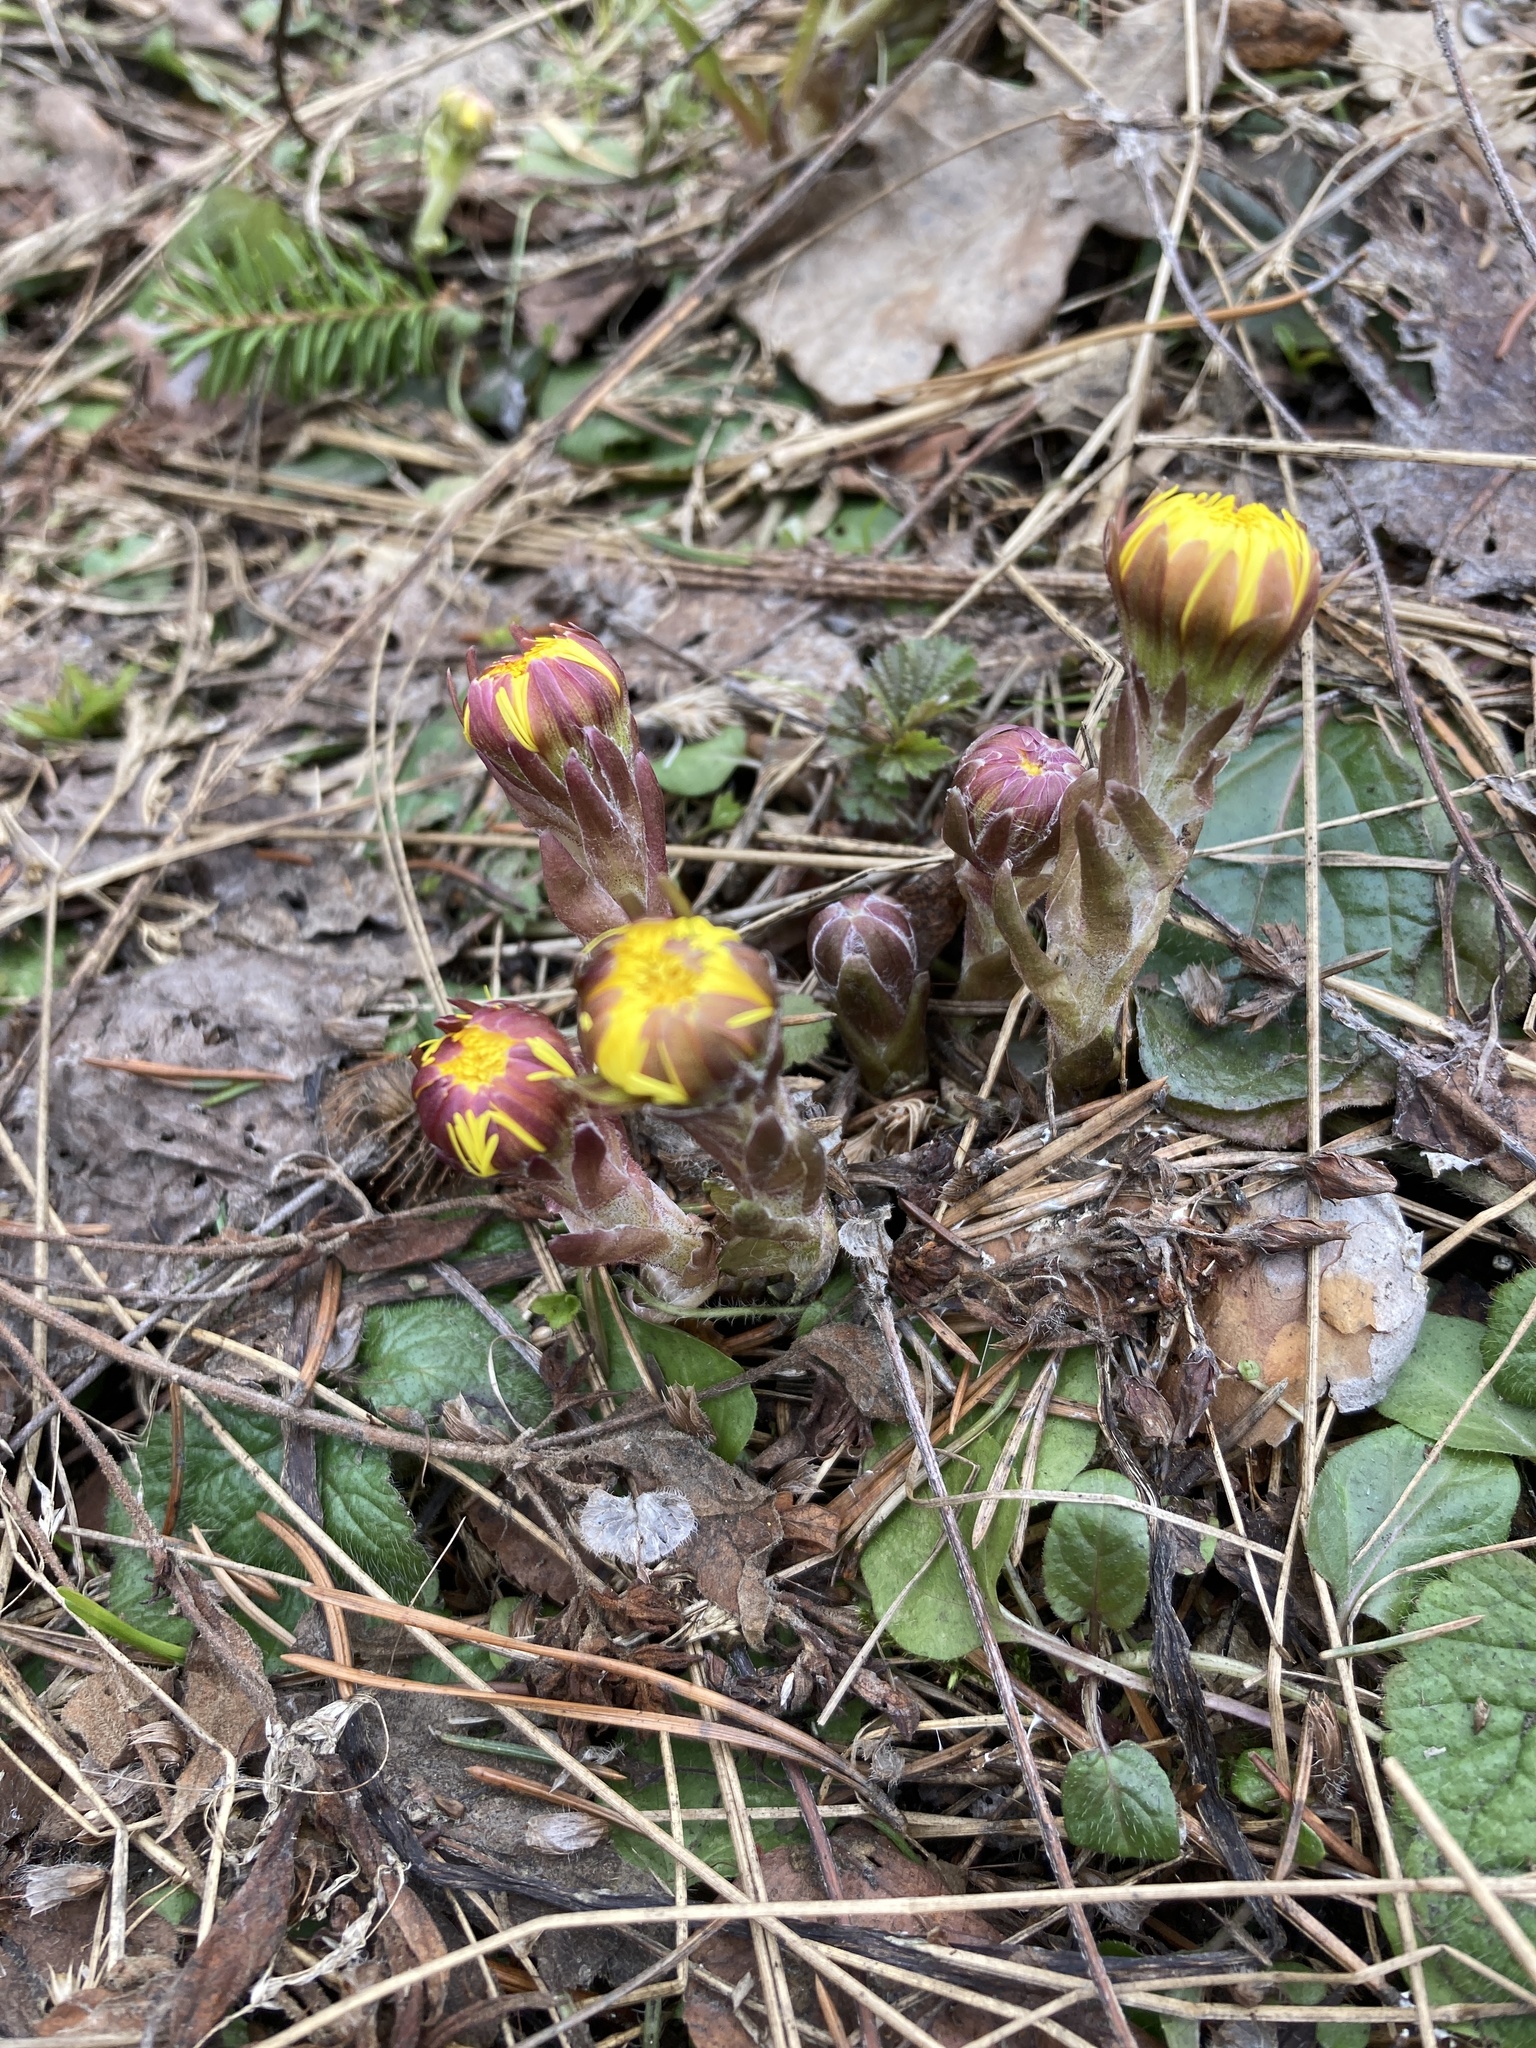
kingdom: Plantae
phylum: Tracheophyta
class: Magnoliopsida
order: Asterales
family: Asteraceae
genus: Tussilago
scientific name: Tussilago farfara
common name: Coltsfoot
